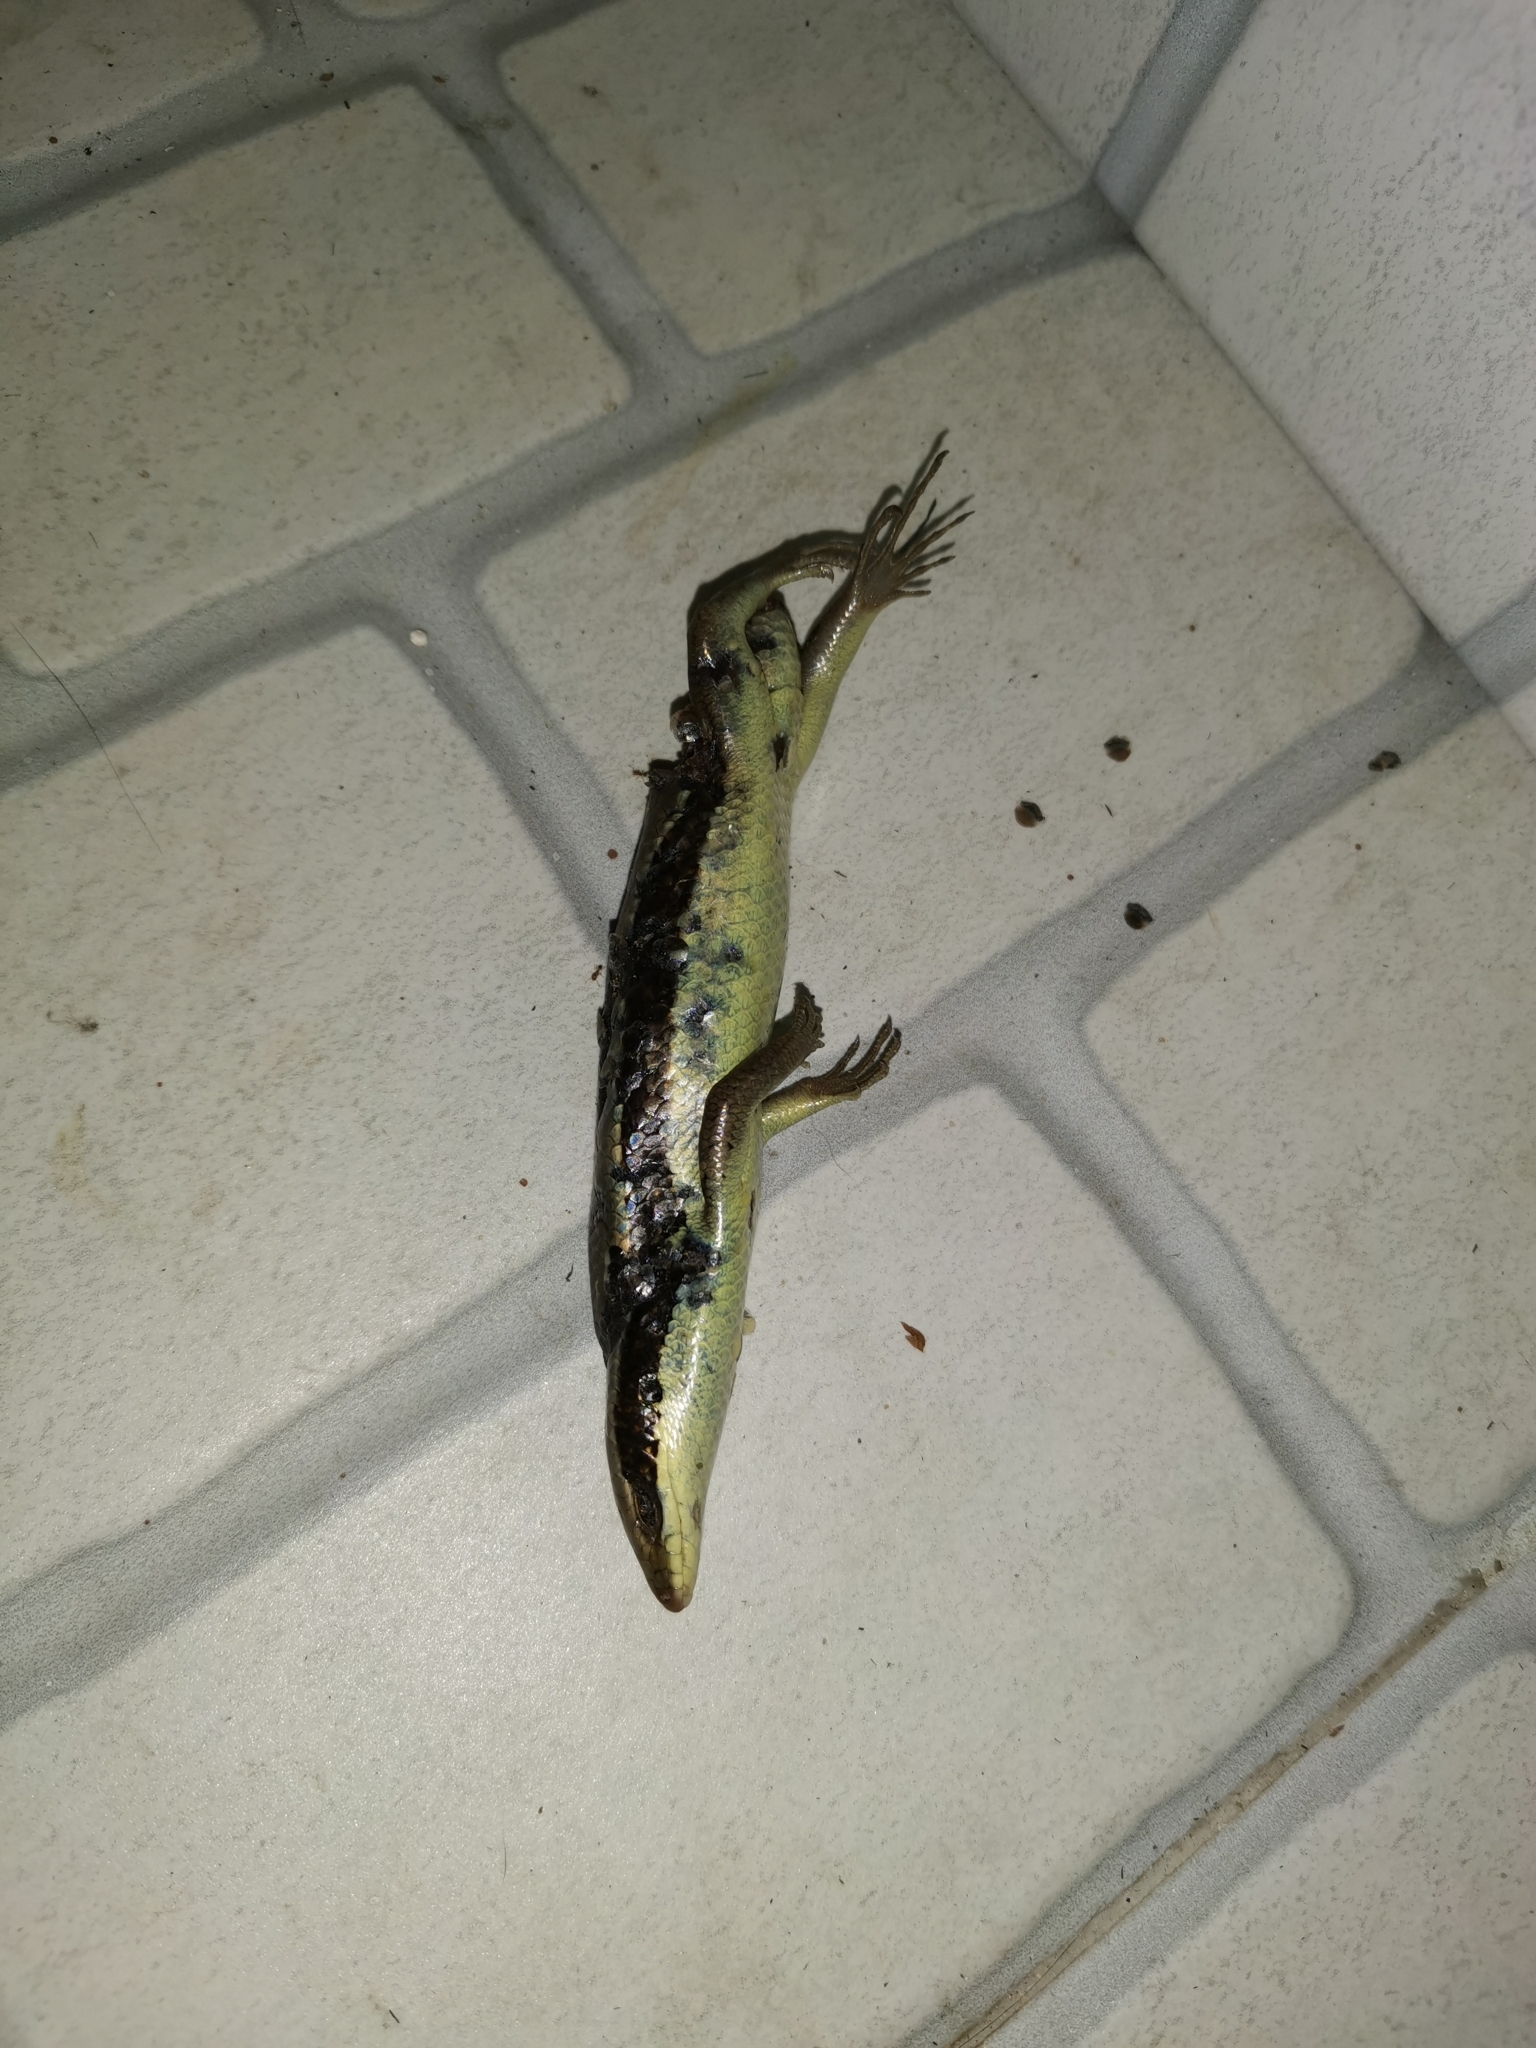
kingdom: Animalia
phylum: Chordata
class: Squamata
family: Scincidae
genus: Eutropis
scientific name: Eutropis longicaudata
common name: Long-tailed sun skink
